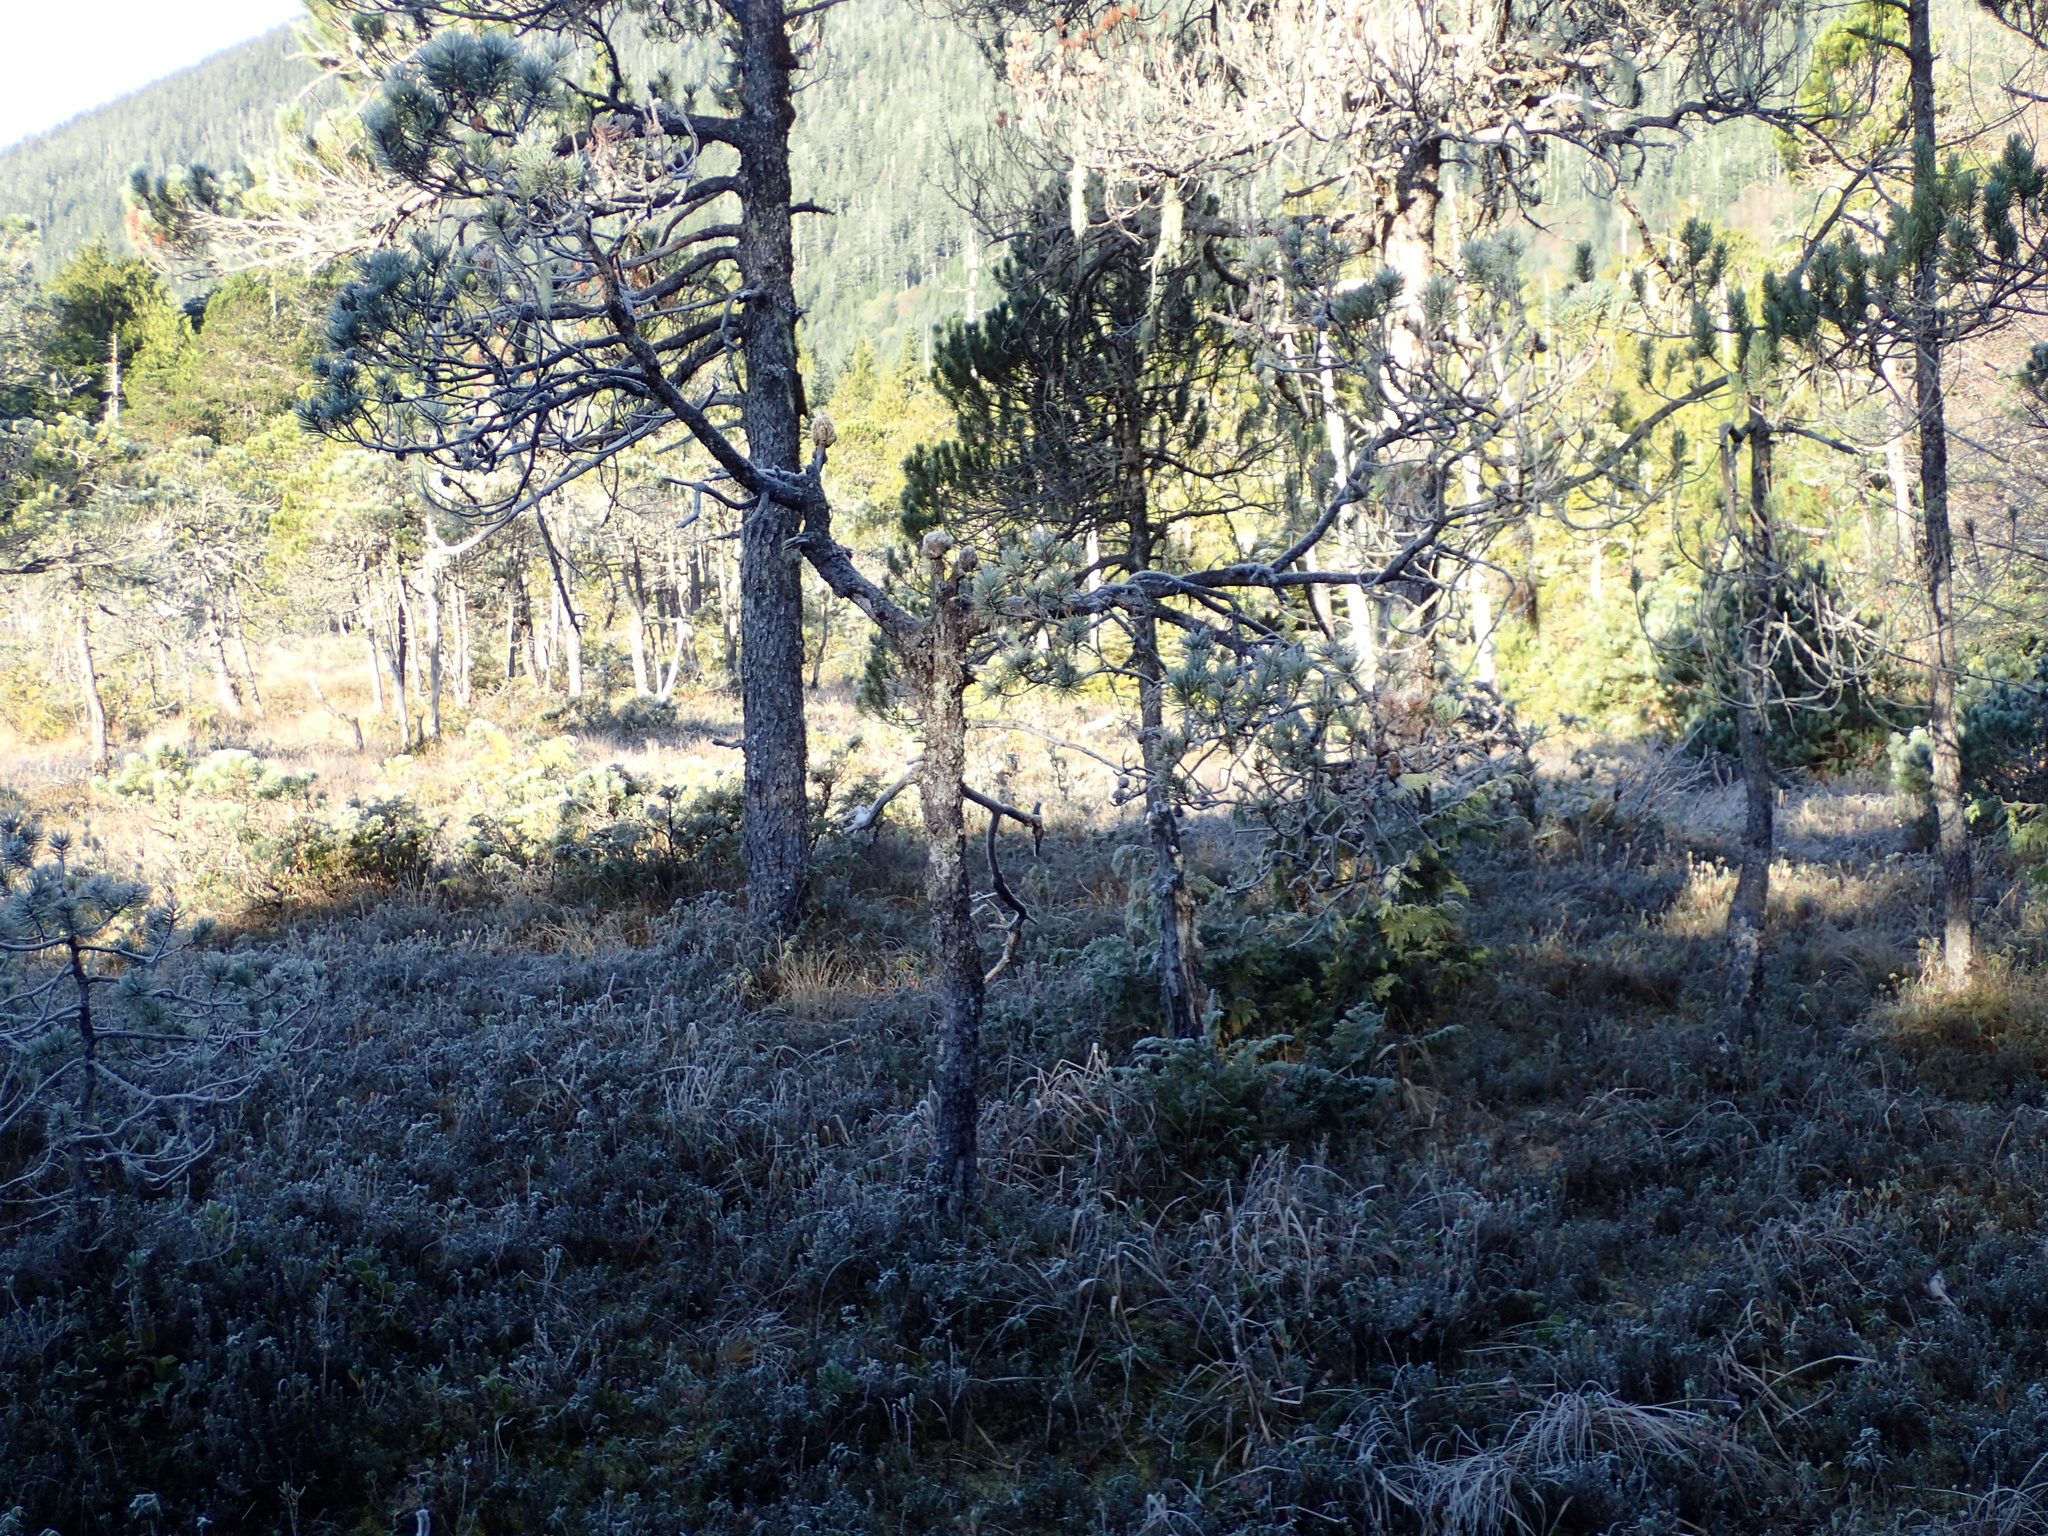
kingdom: Plantae
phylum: Tracheophyta
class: Pinopsida
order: Pinales
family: Pinaceae
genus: Pinus
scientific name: Pinus contorta
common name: Lodgepole pine
